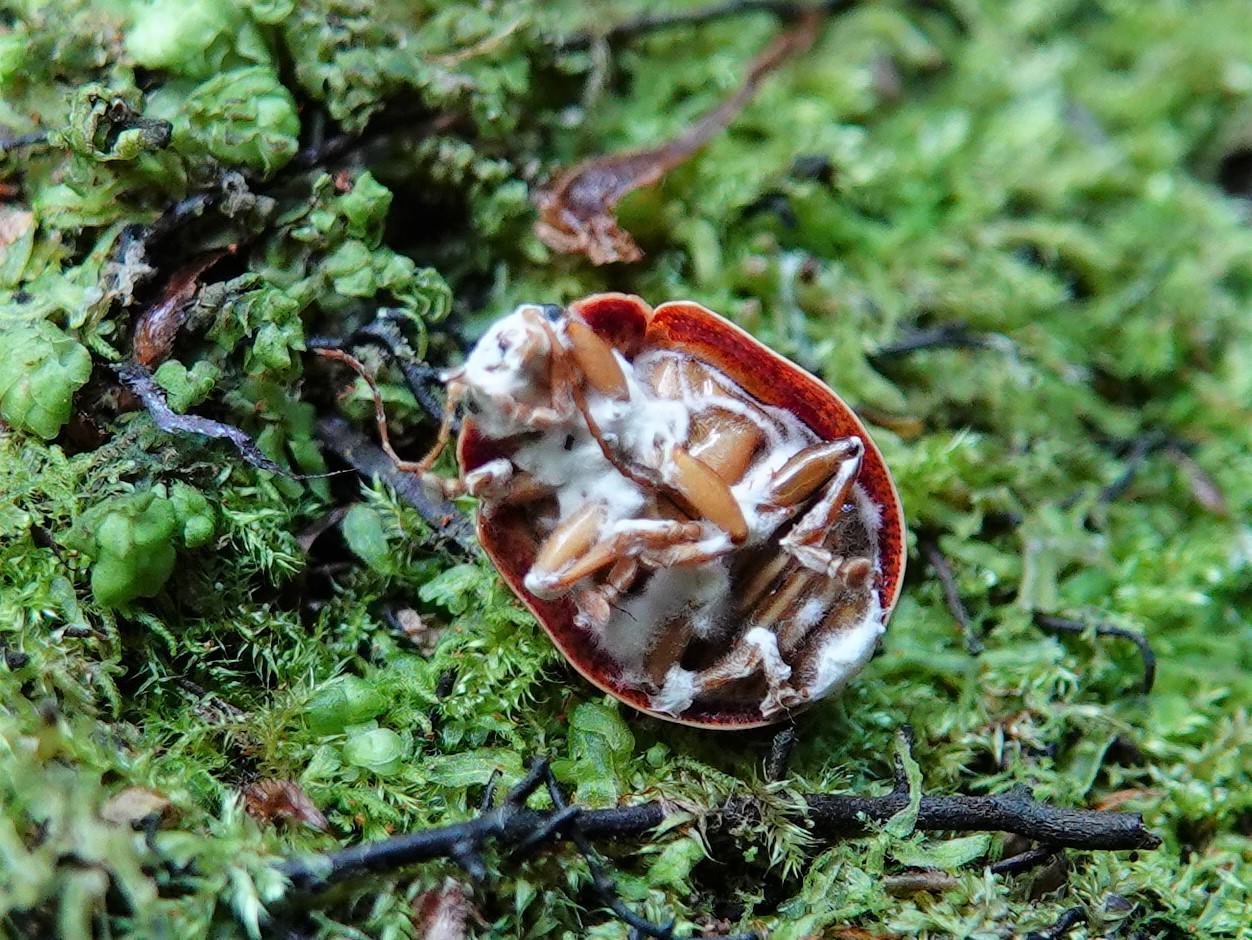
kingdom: Animalia
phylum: Arthropoda
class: Insecta
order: Coleoptera
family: Chrysomelidae
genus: Paropsis
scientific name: Paropsis charybdis
